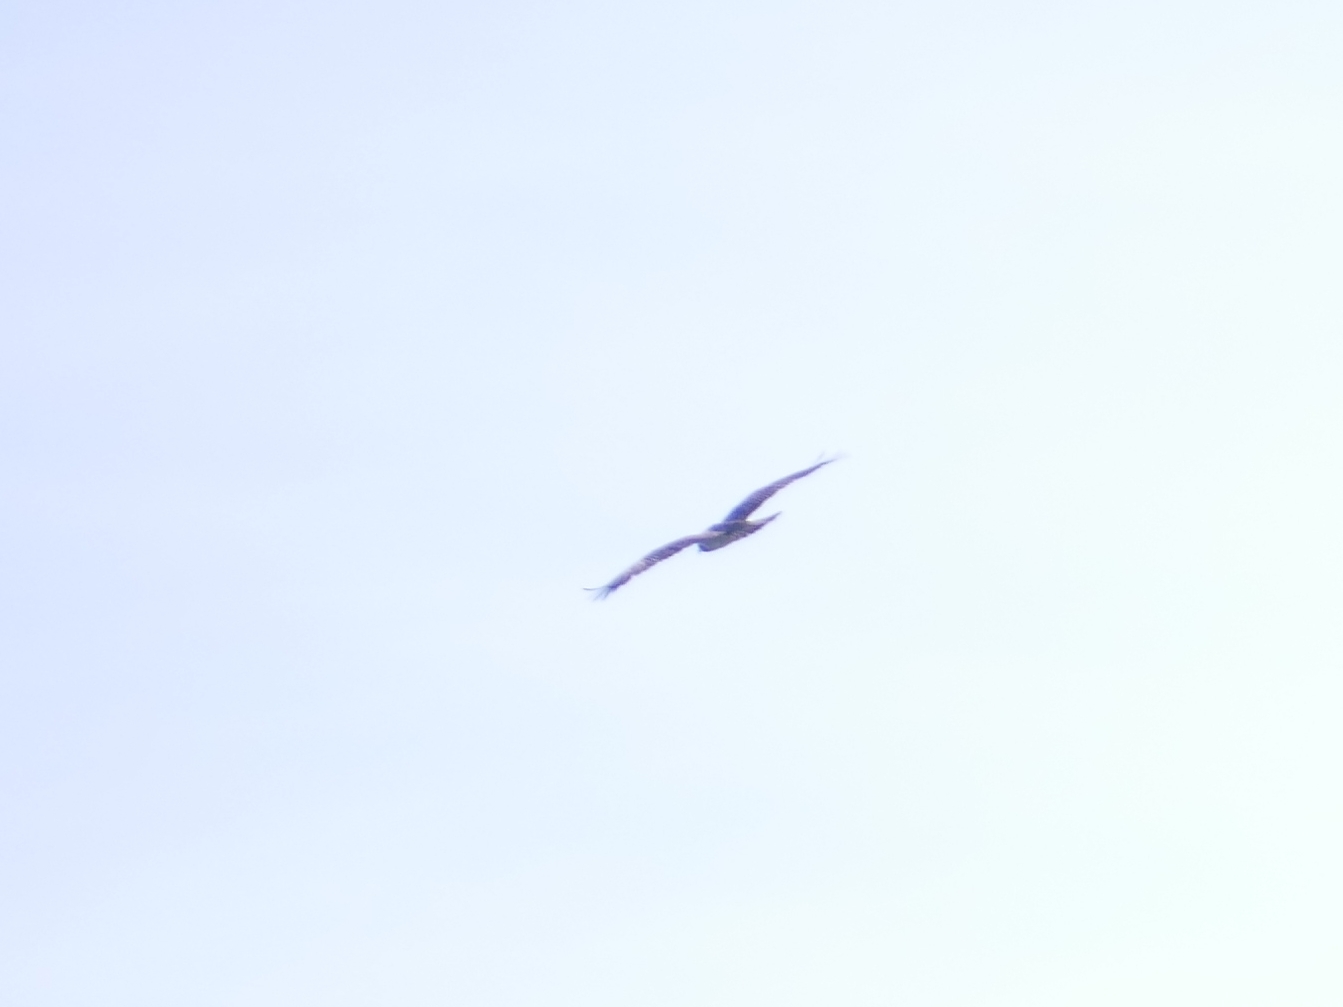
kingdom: Animalia
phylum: Chordata
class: Aves
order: Accipitriformes
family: Accipitridae
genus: Milvus
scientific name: Milvus migrans
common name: Black kite
